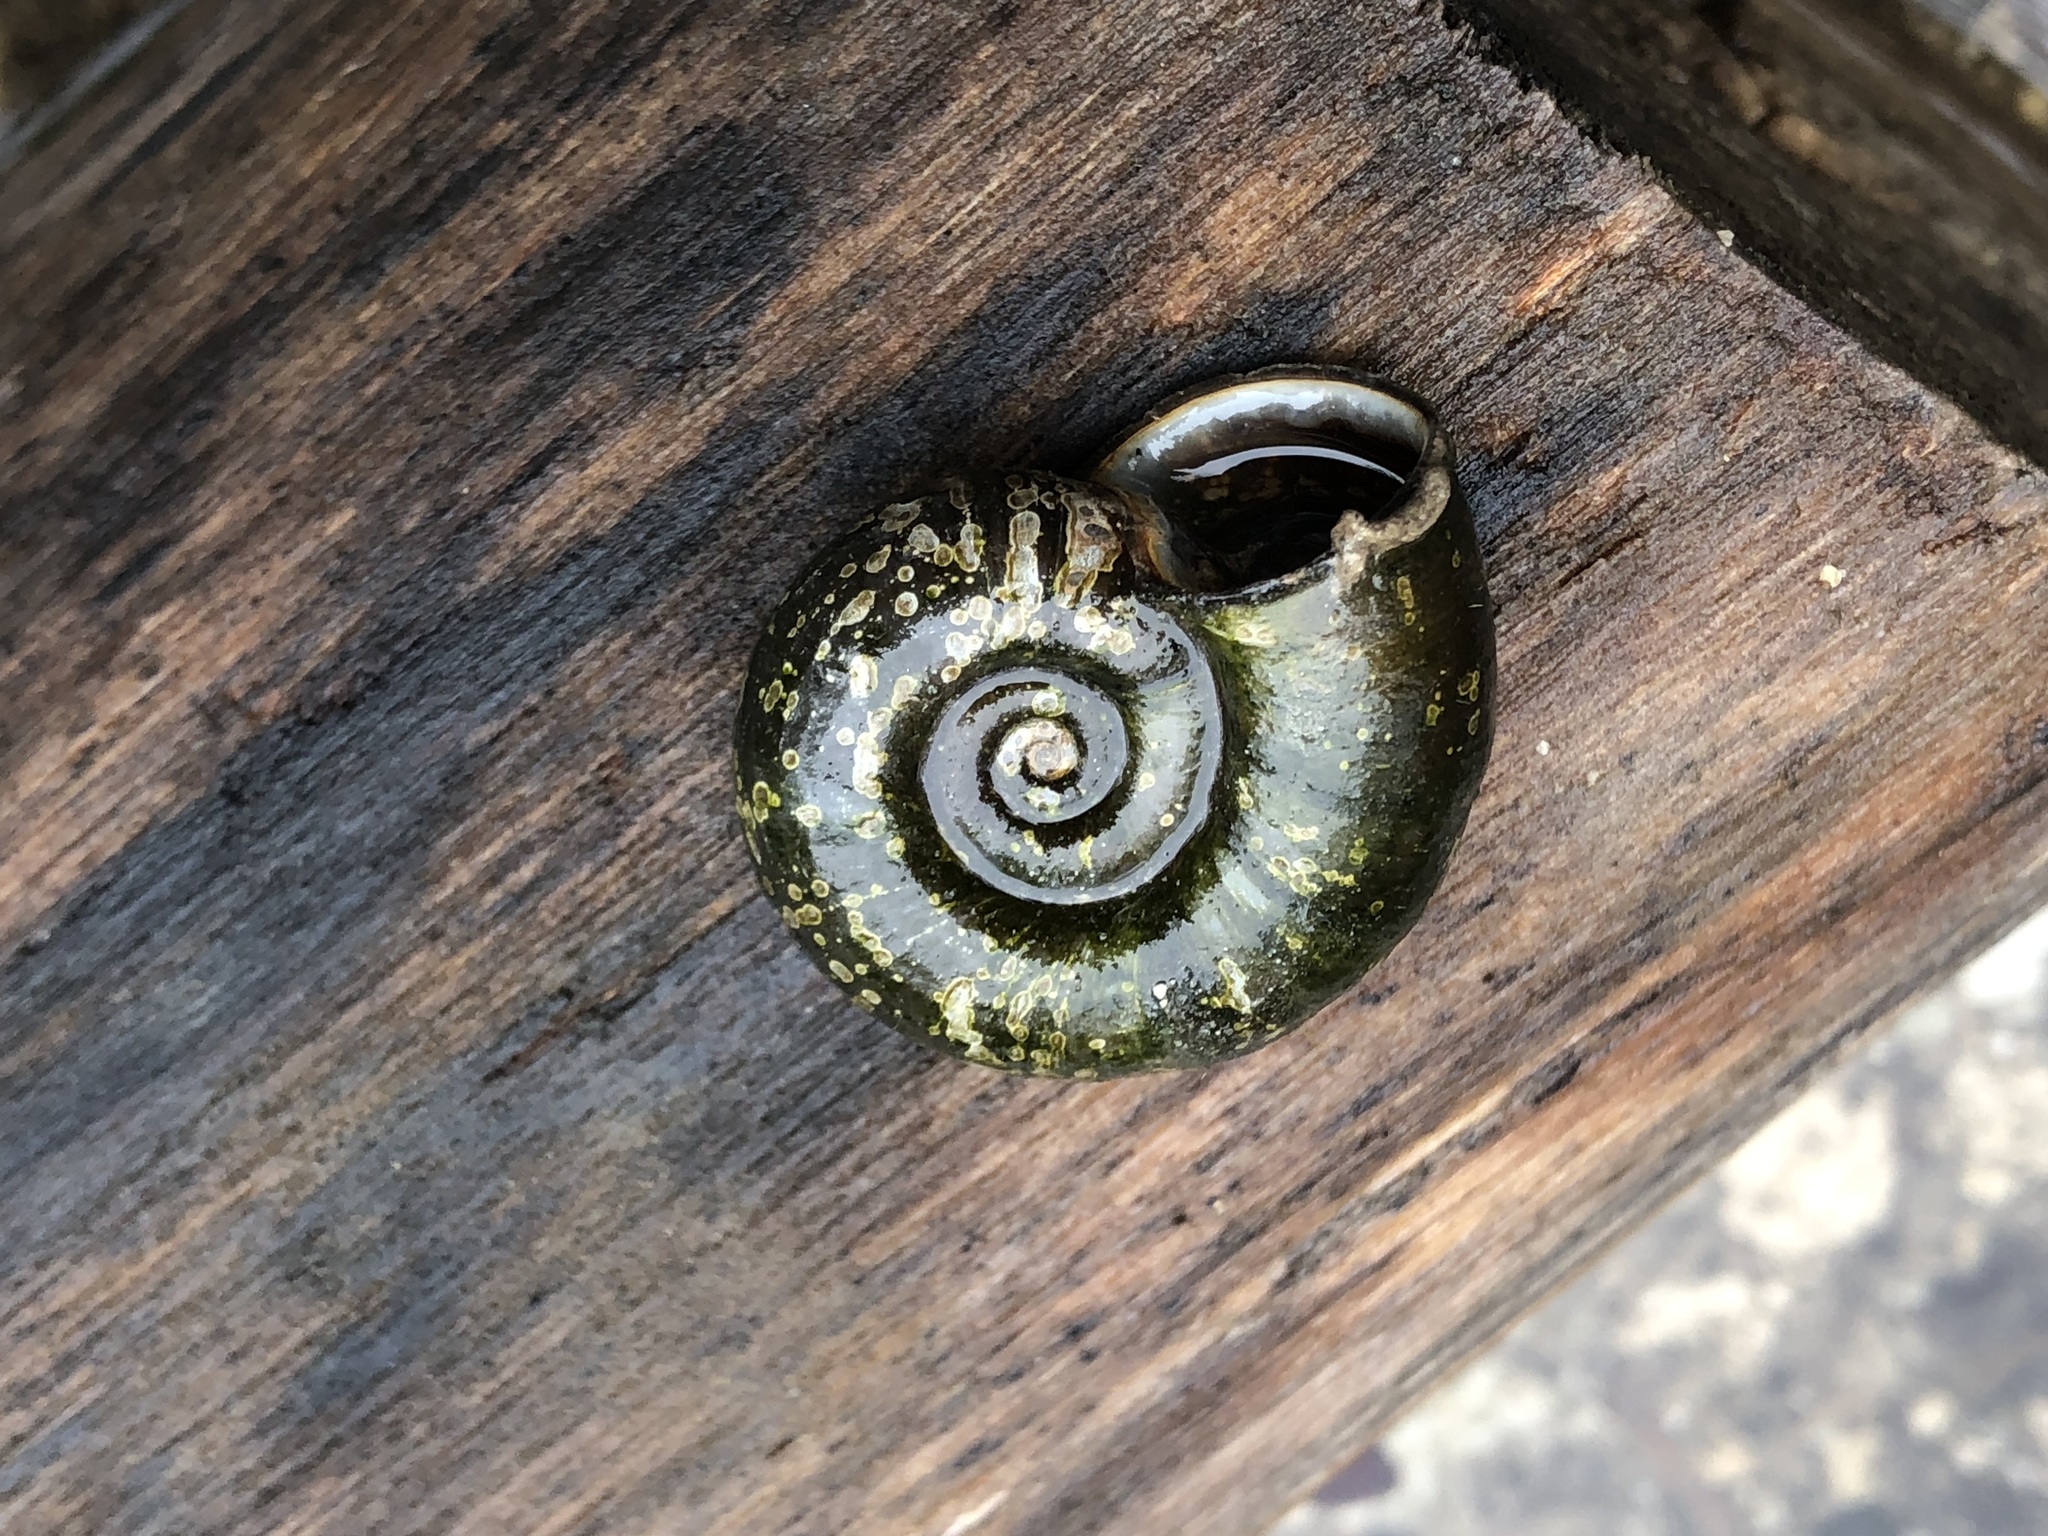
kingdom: Animalia
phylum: Mollusca
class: Gastropoda
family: Planorbidae
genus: Planorbarius
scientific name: Planorbarius corneus
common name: Great ramshorn
